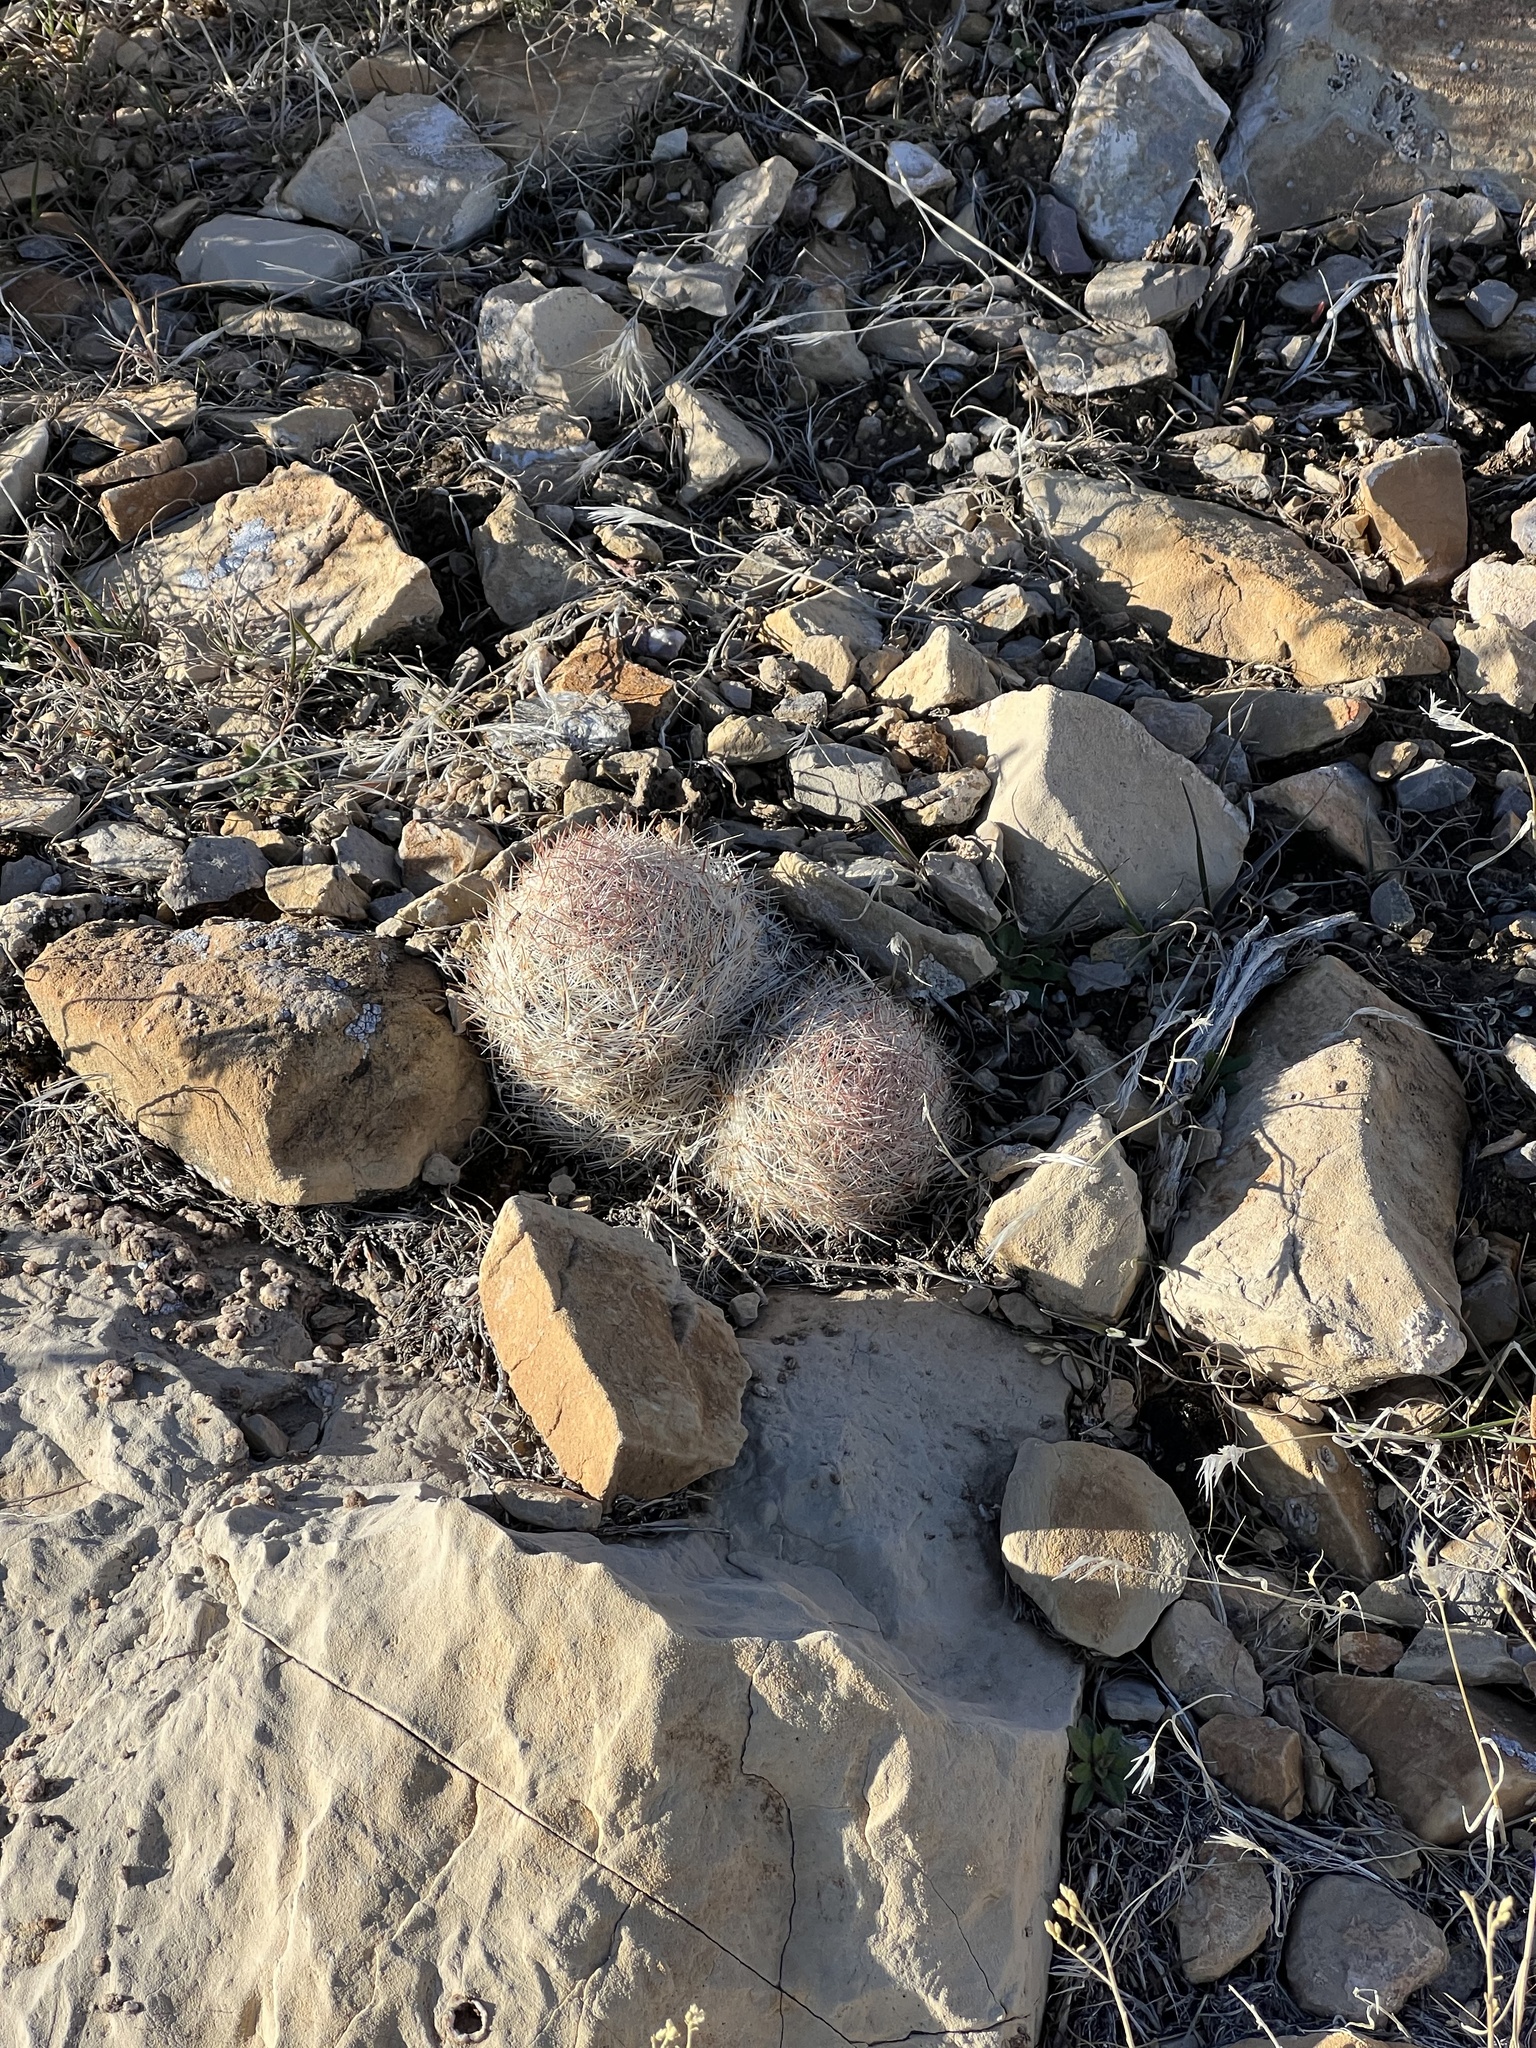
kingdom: Plantae
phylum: Tracheophyta
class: Magnoliopsida
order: Caryophyllales
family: Cactaceae
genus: Pelecyphora
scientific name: Pelecyphora dasyacantha
